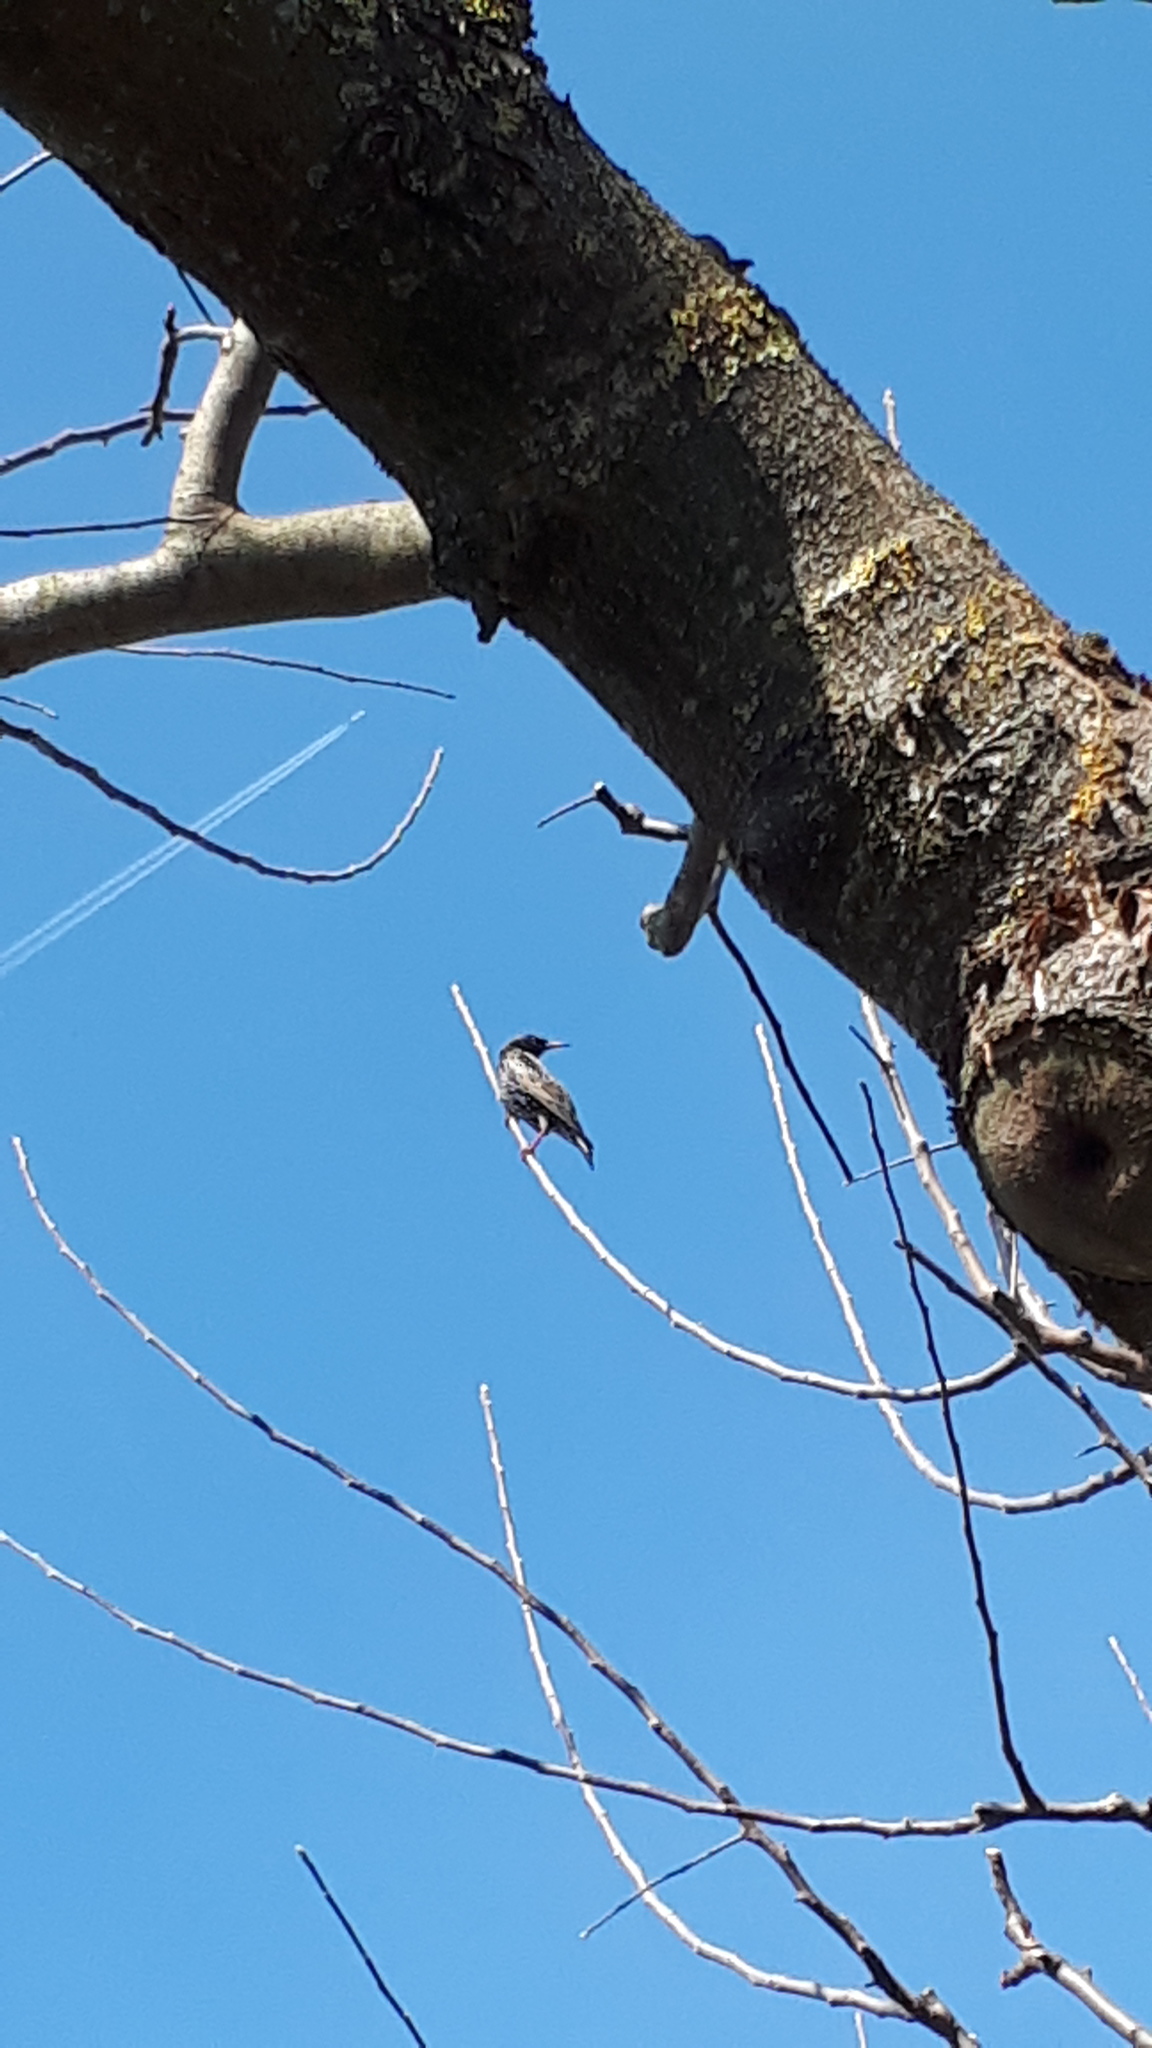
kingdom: Animalia
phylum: Chordata
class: Aves
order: Passeriformes
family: Sturnidae
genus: Sturnus
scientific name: Sturnus vulgaris
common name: Common starling
